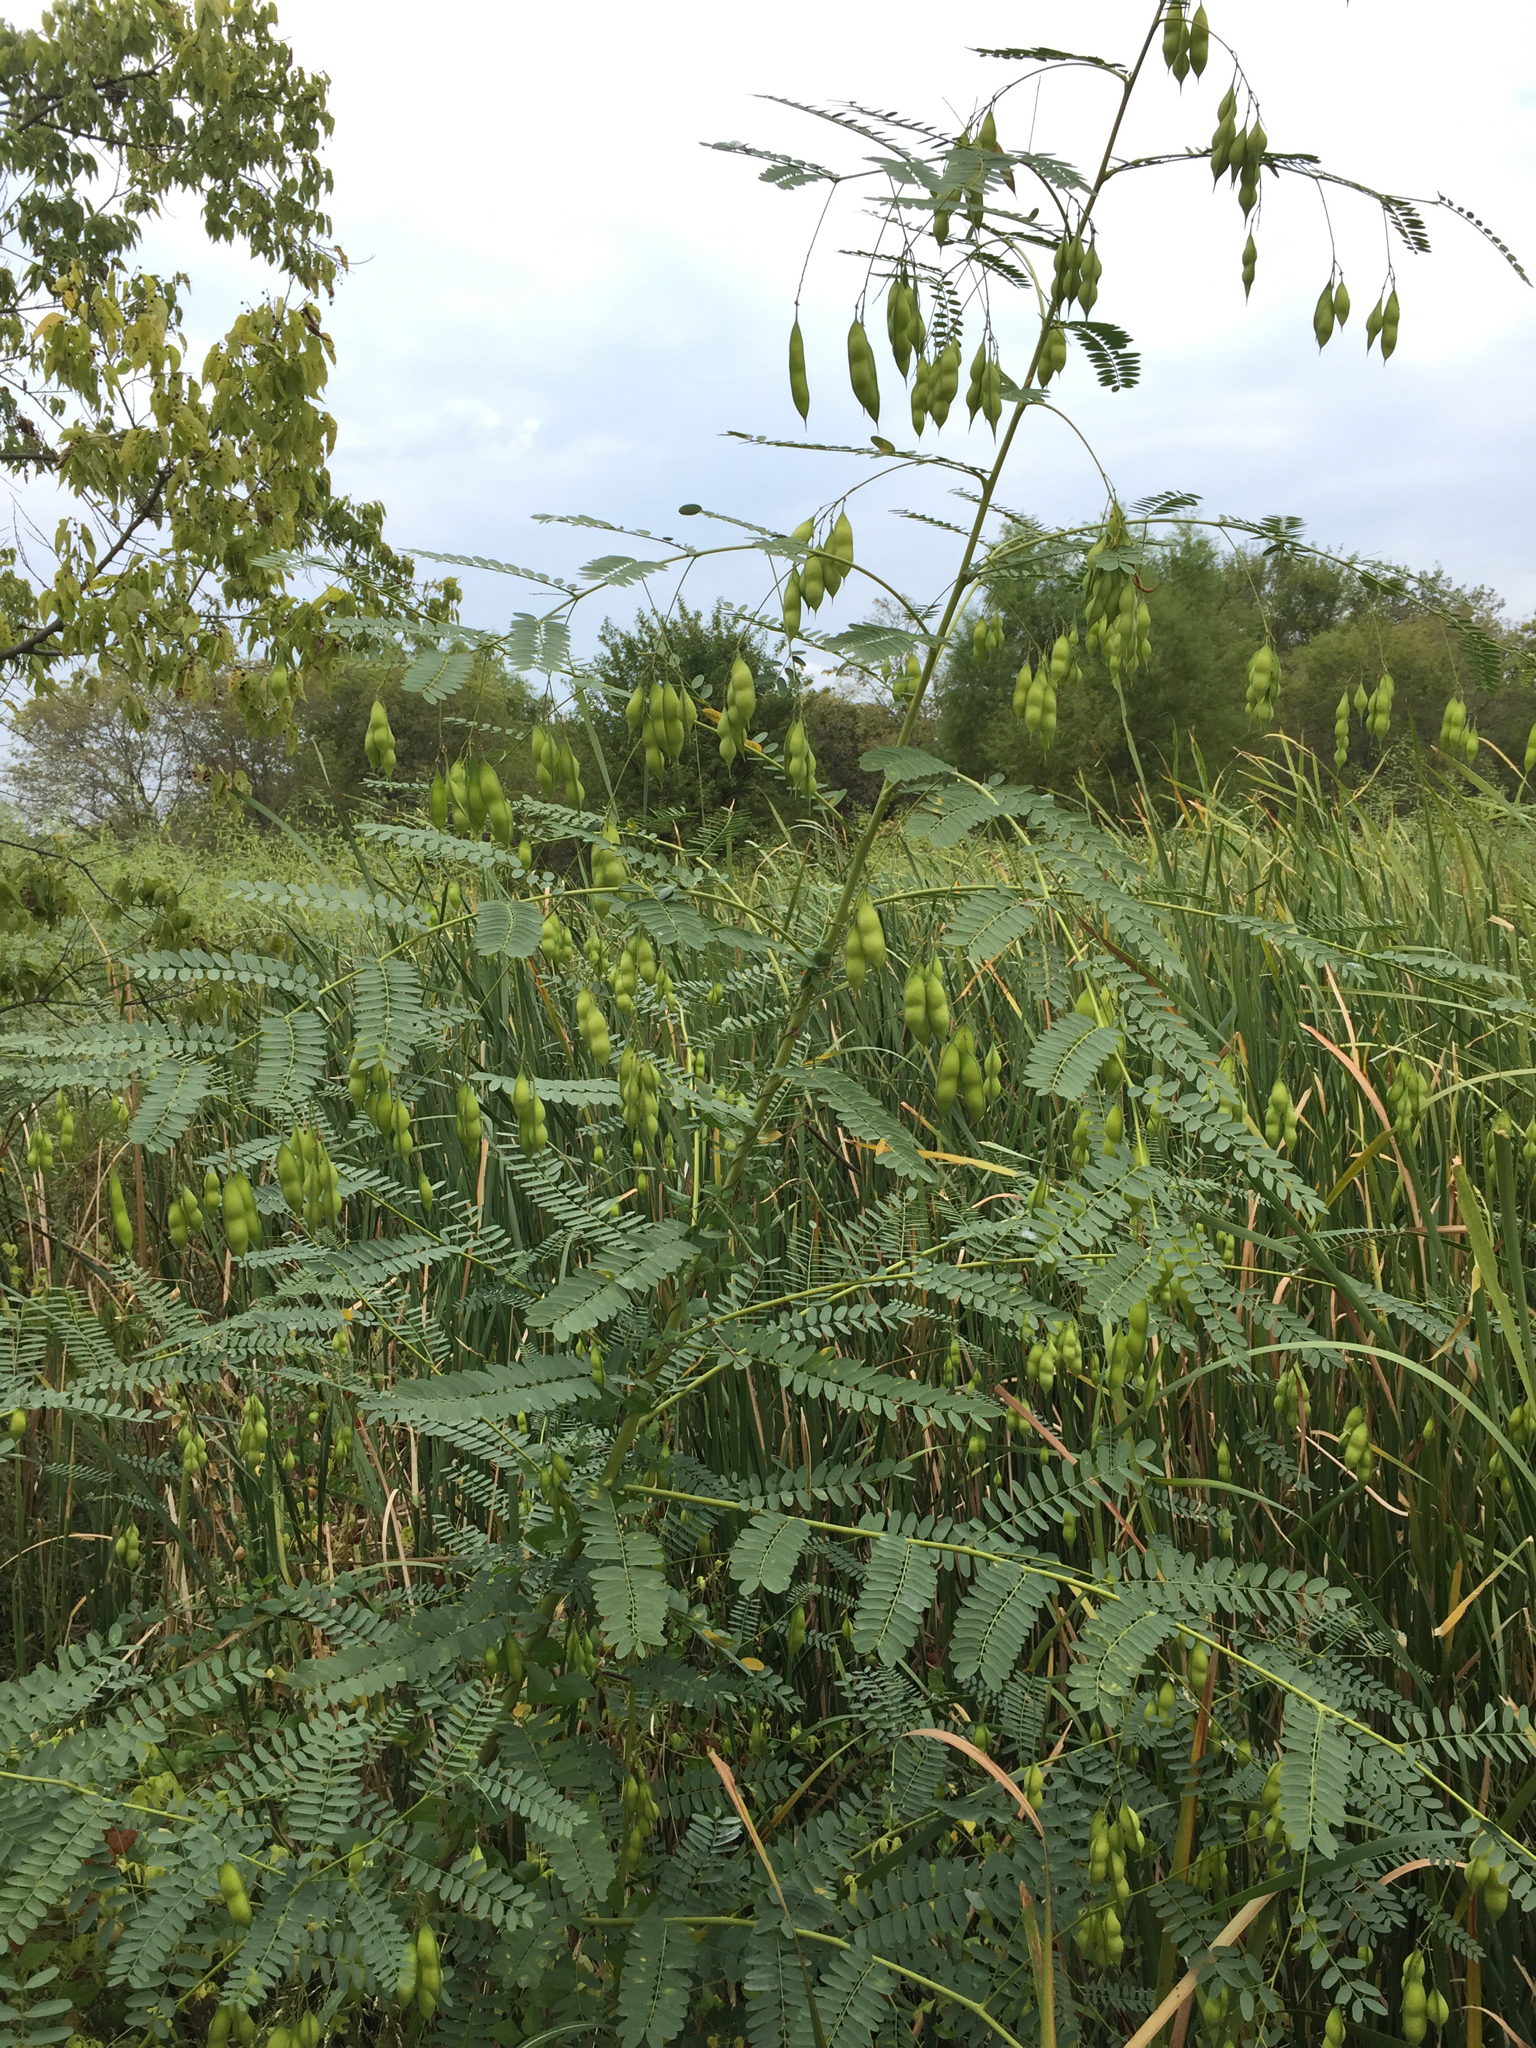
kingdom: Plantae
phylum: Tracheophyta
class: Magnoliopsida
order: Fabales
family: Fabaceae
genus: Sesbania
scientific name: Sesbania vesicaria
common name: Bagpod
